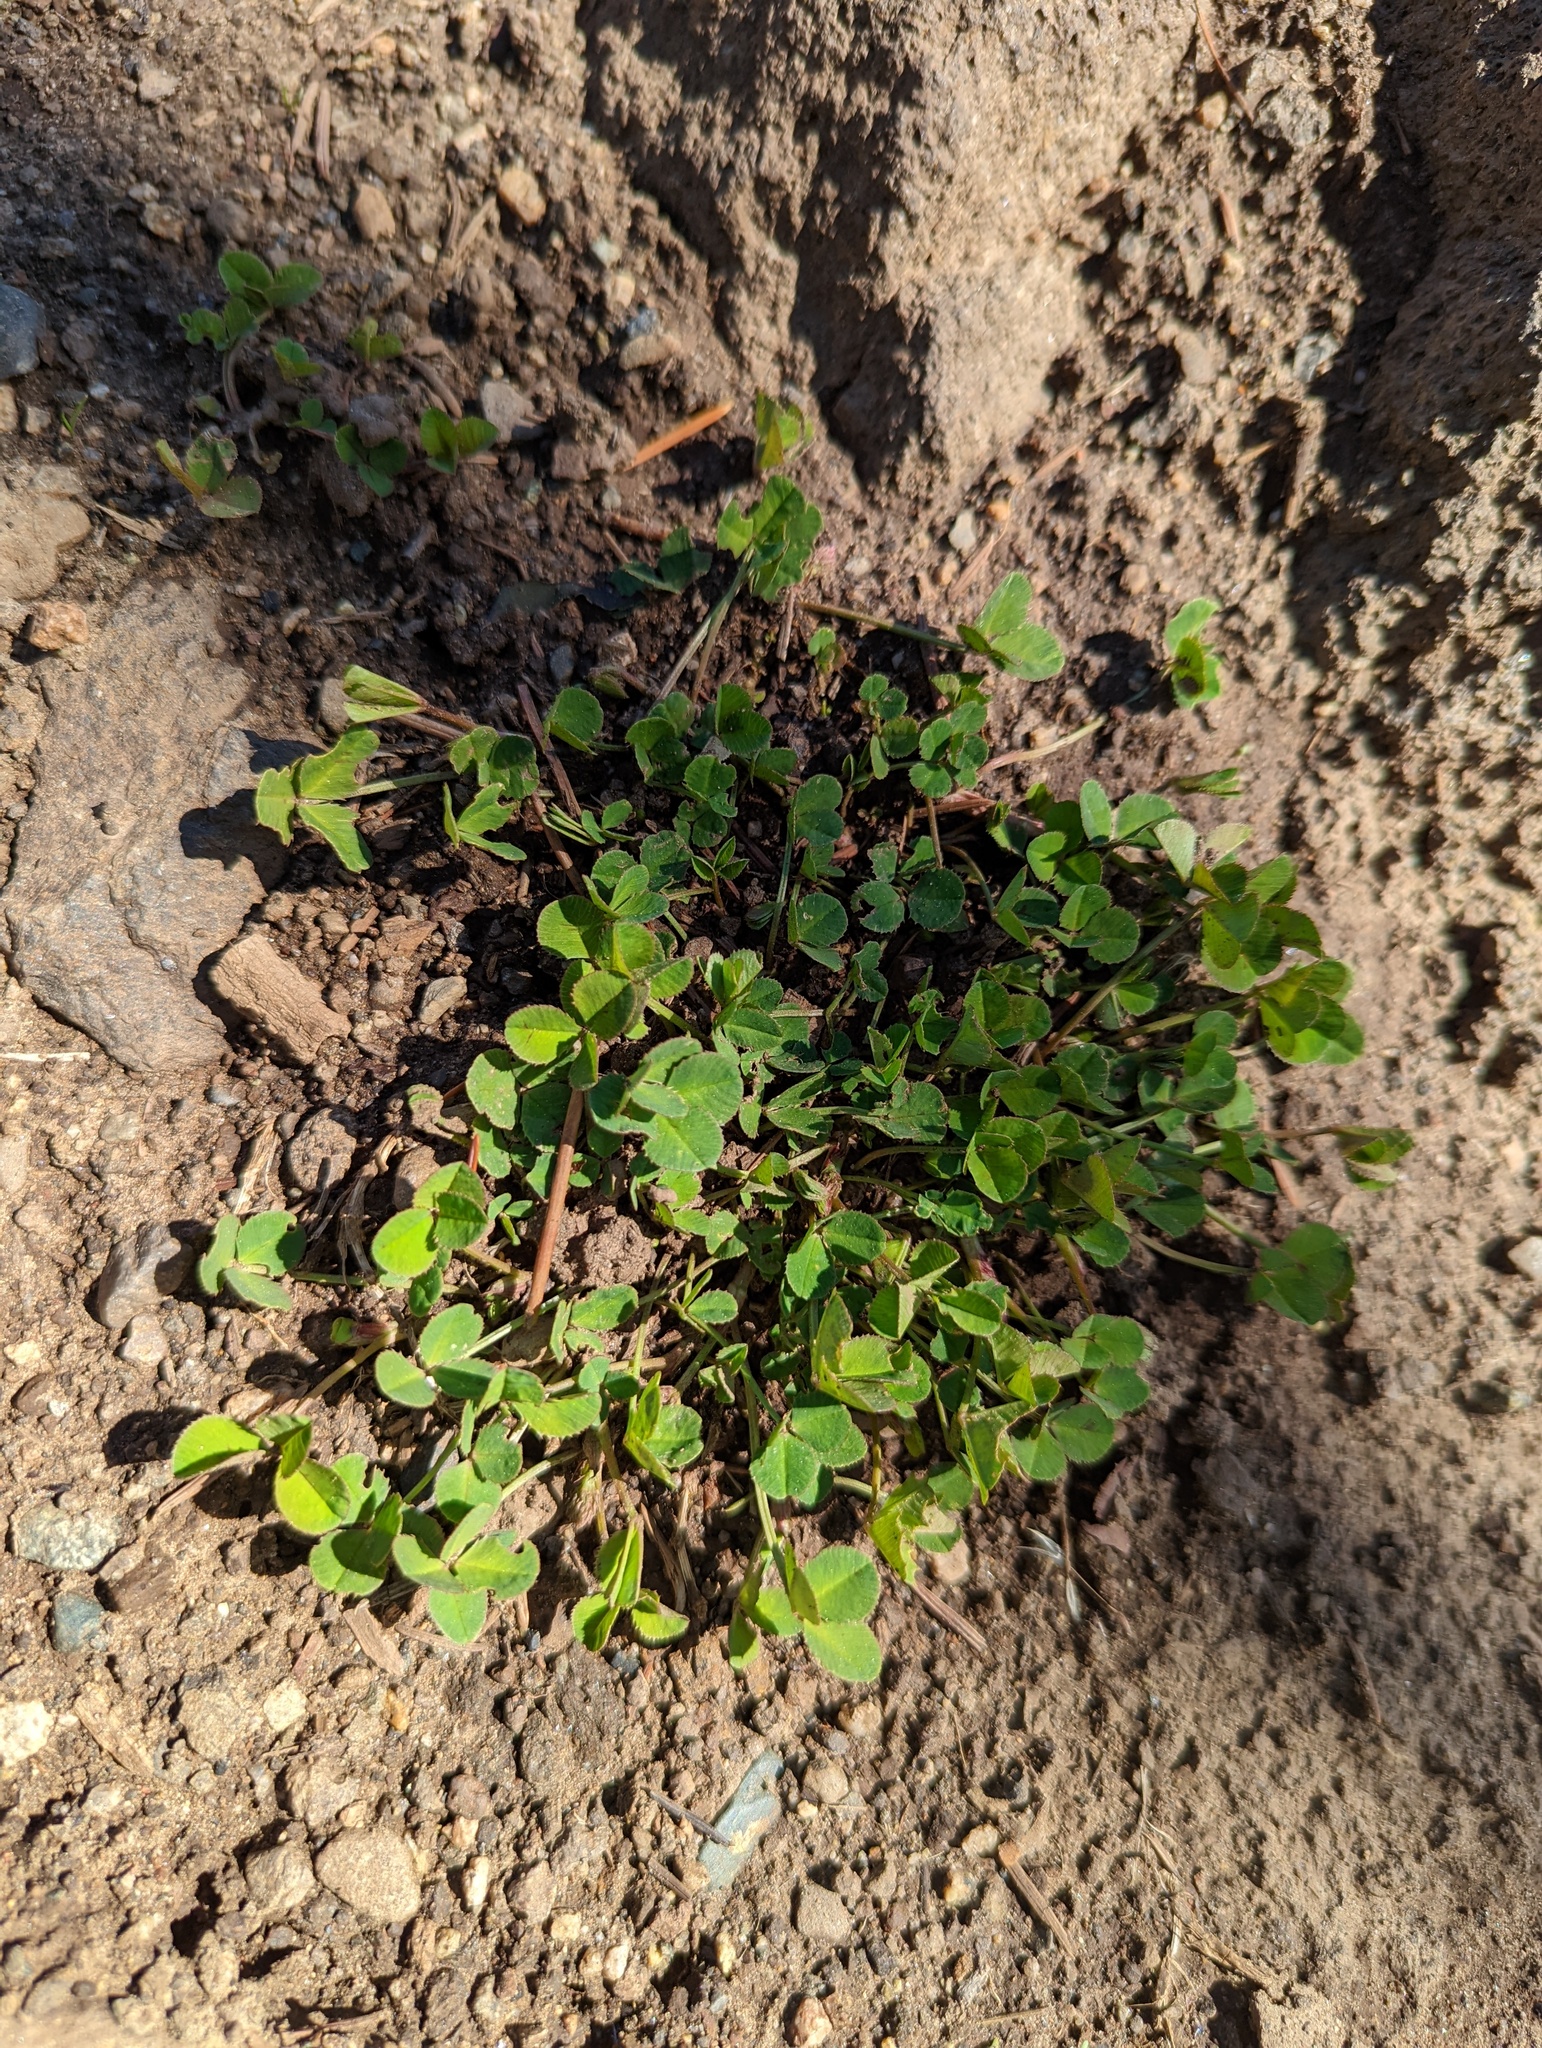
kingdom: Plantae
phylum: Tracheophyta
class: Magnoliopsida
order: Fabales
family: Fabaceae
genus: Trifolium
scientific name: Trifolium repens
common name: White clover
